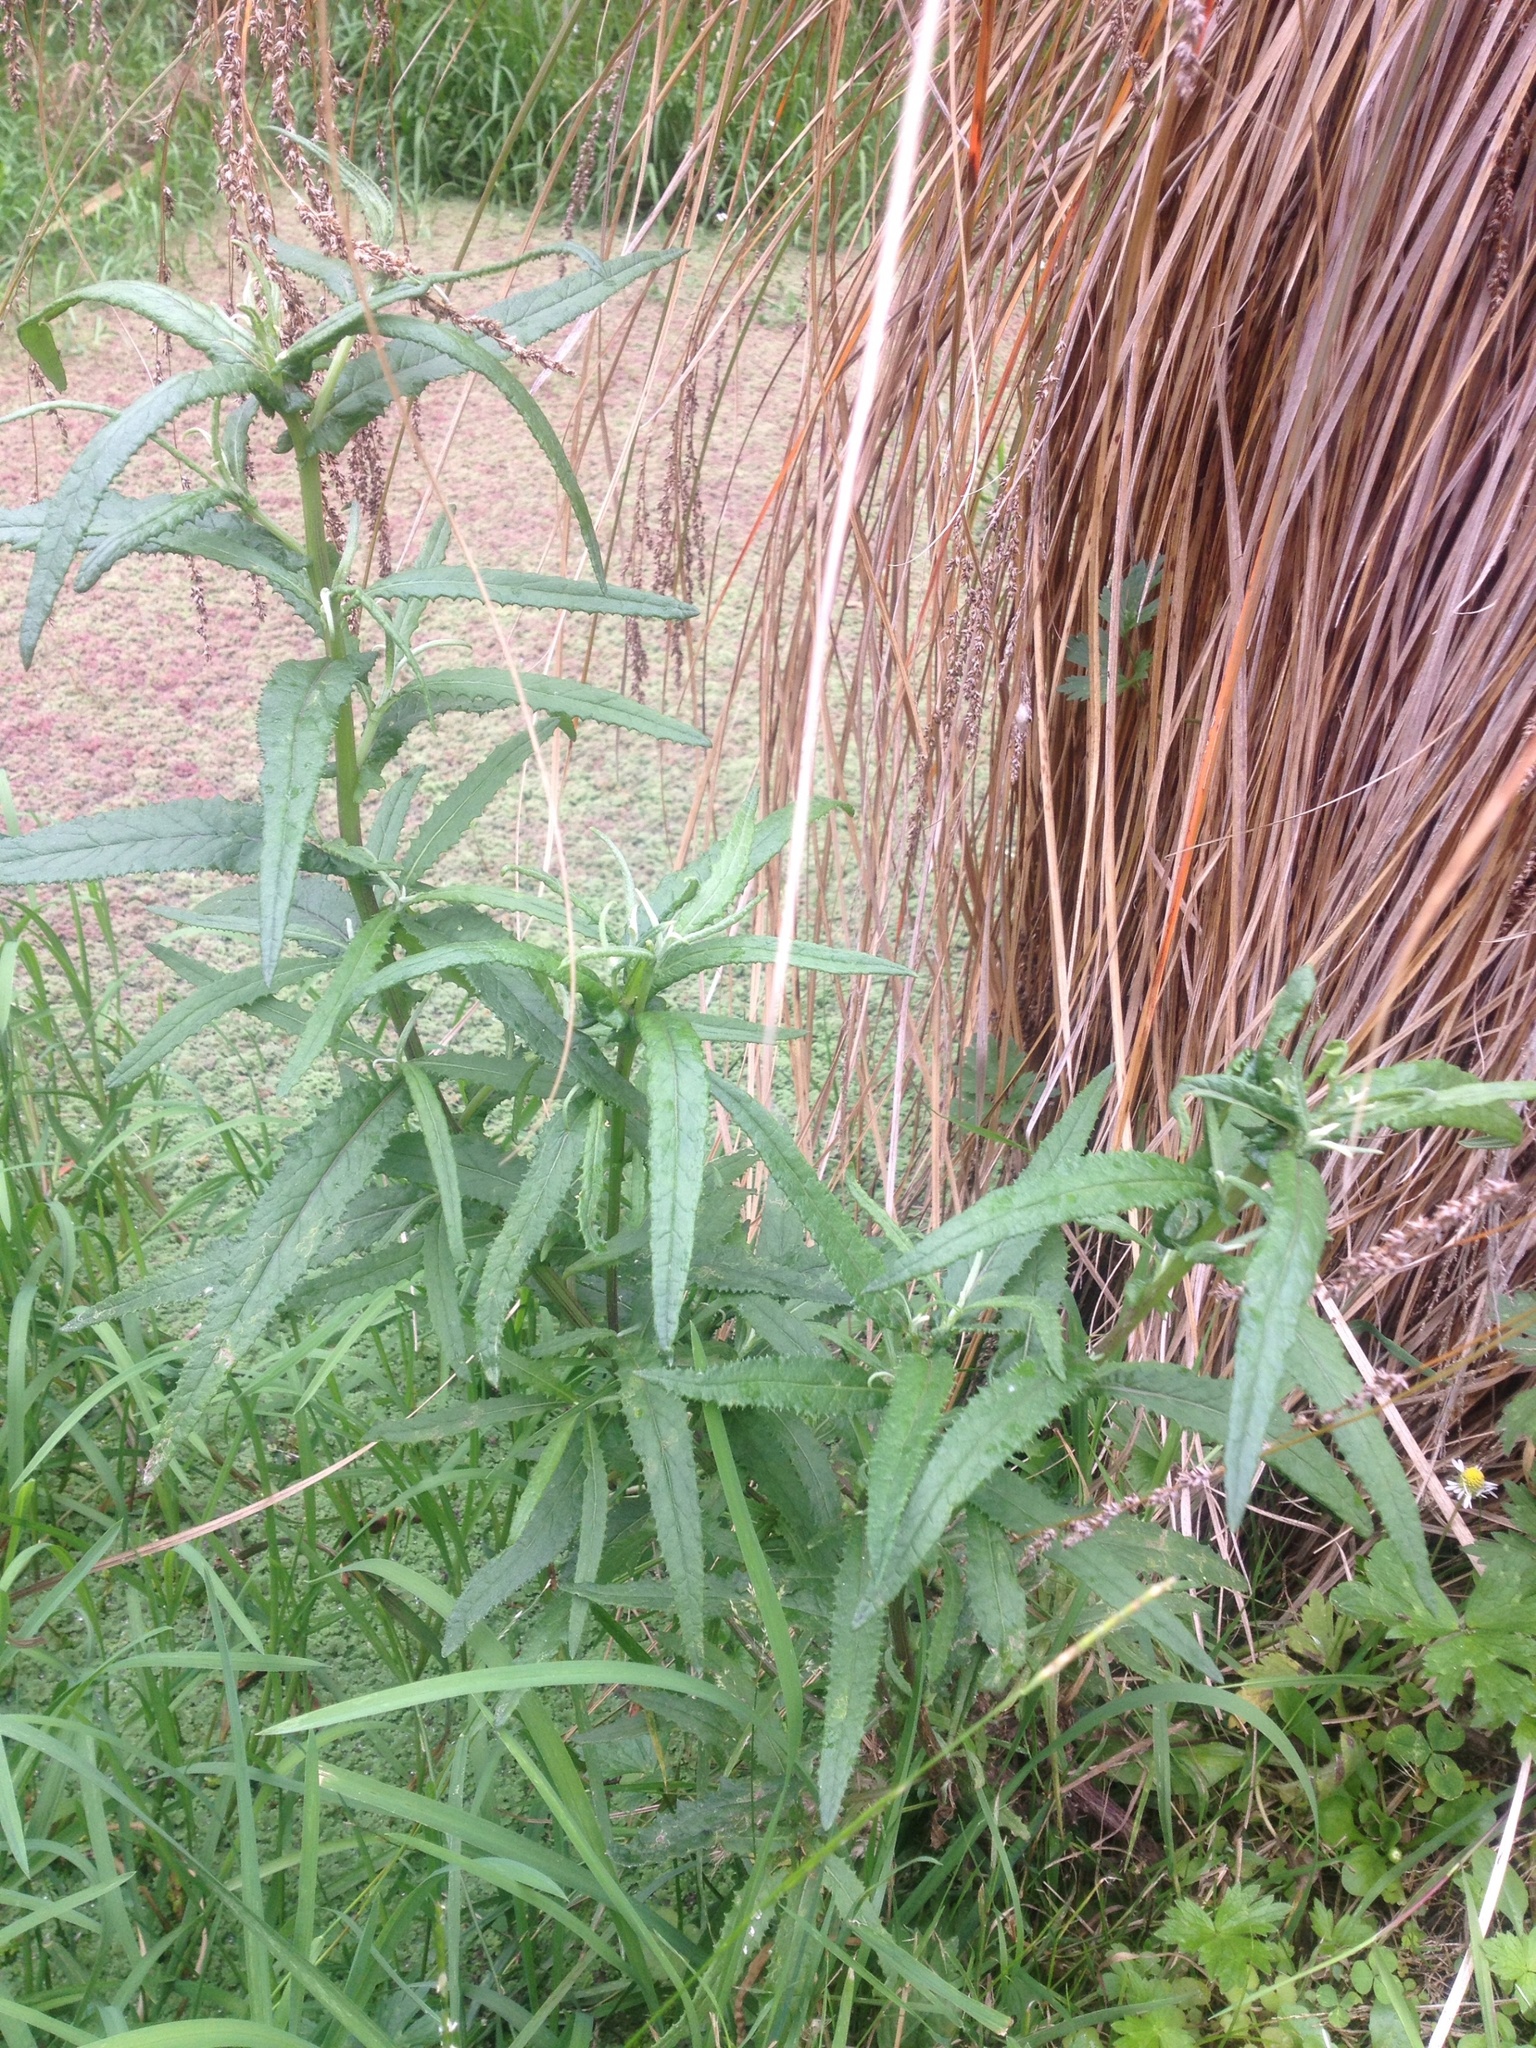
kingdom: Plantae
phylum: Tracheophyta
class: Magnoliopsida
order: Asterales
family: Asteraceae
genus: Senecio
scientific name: Senecio minimus
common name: Toothed fireweed
